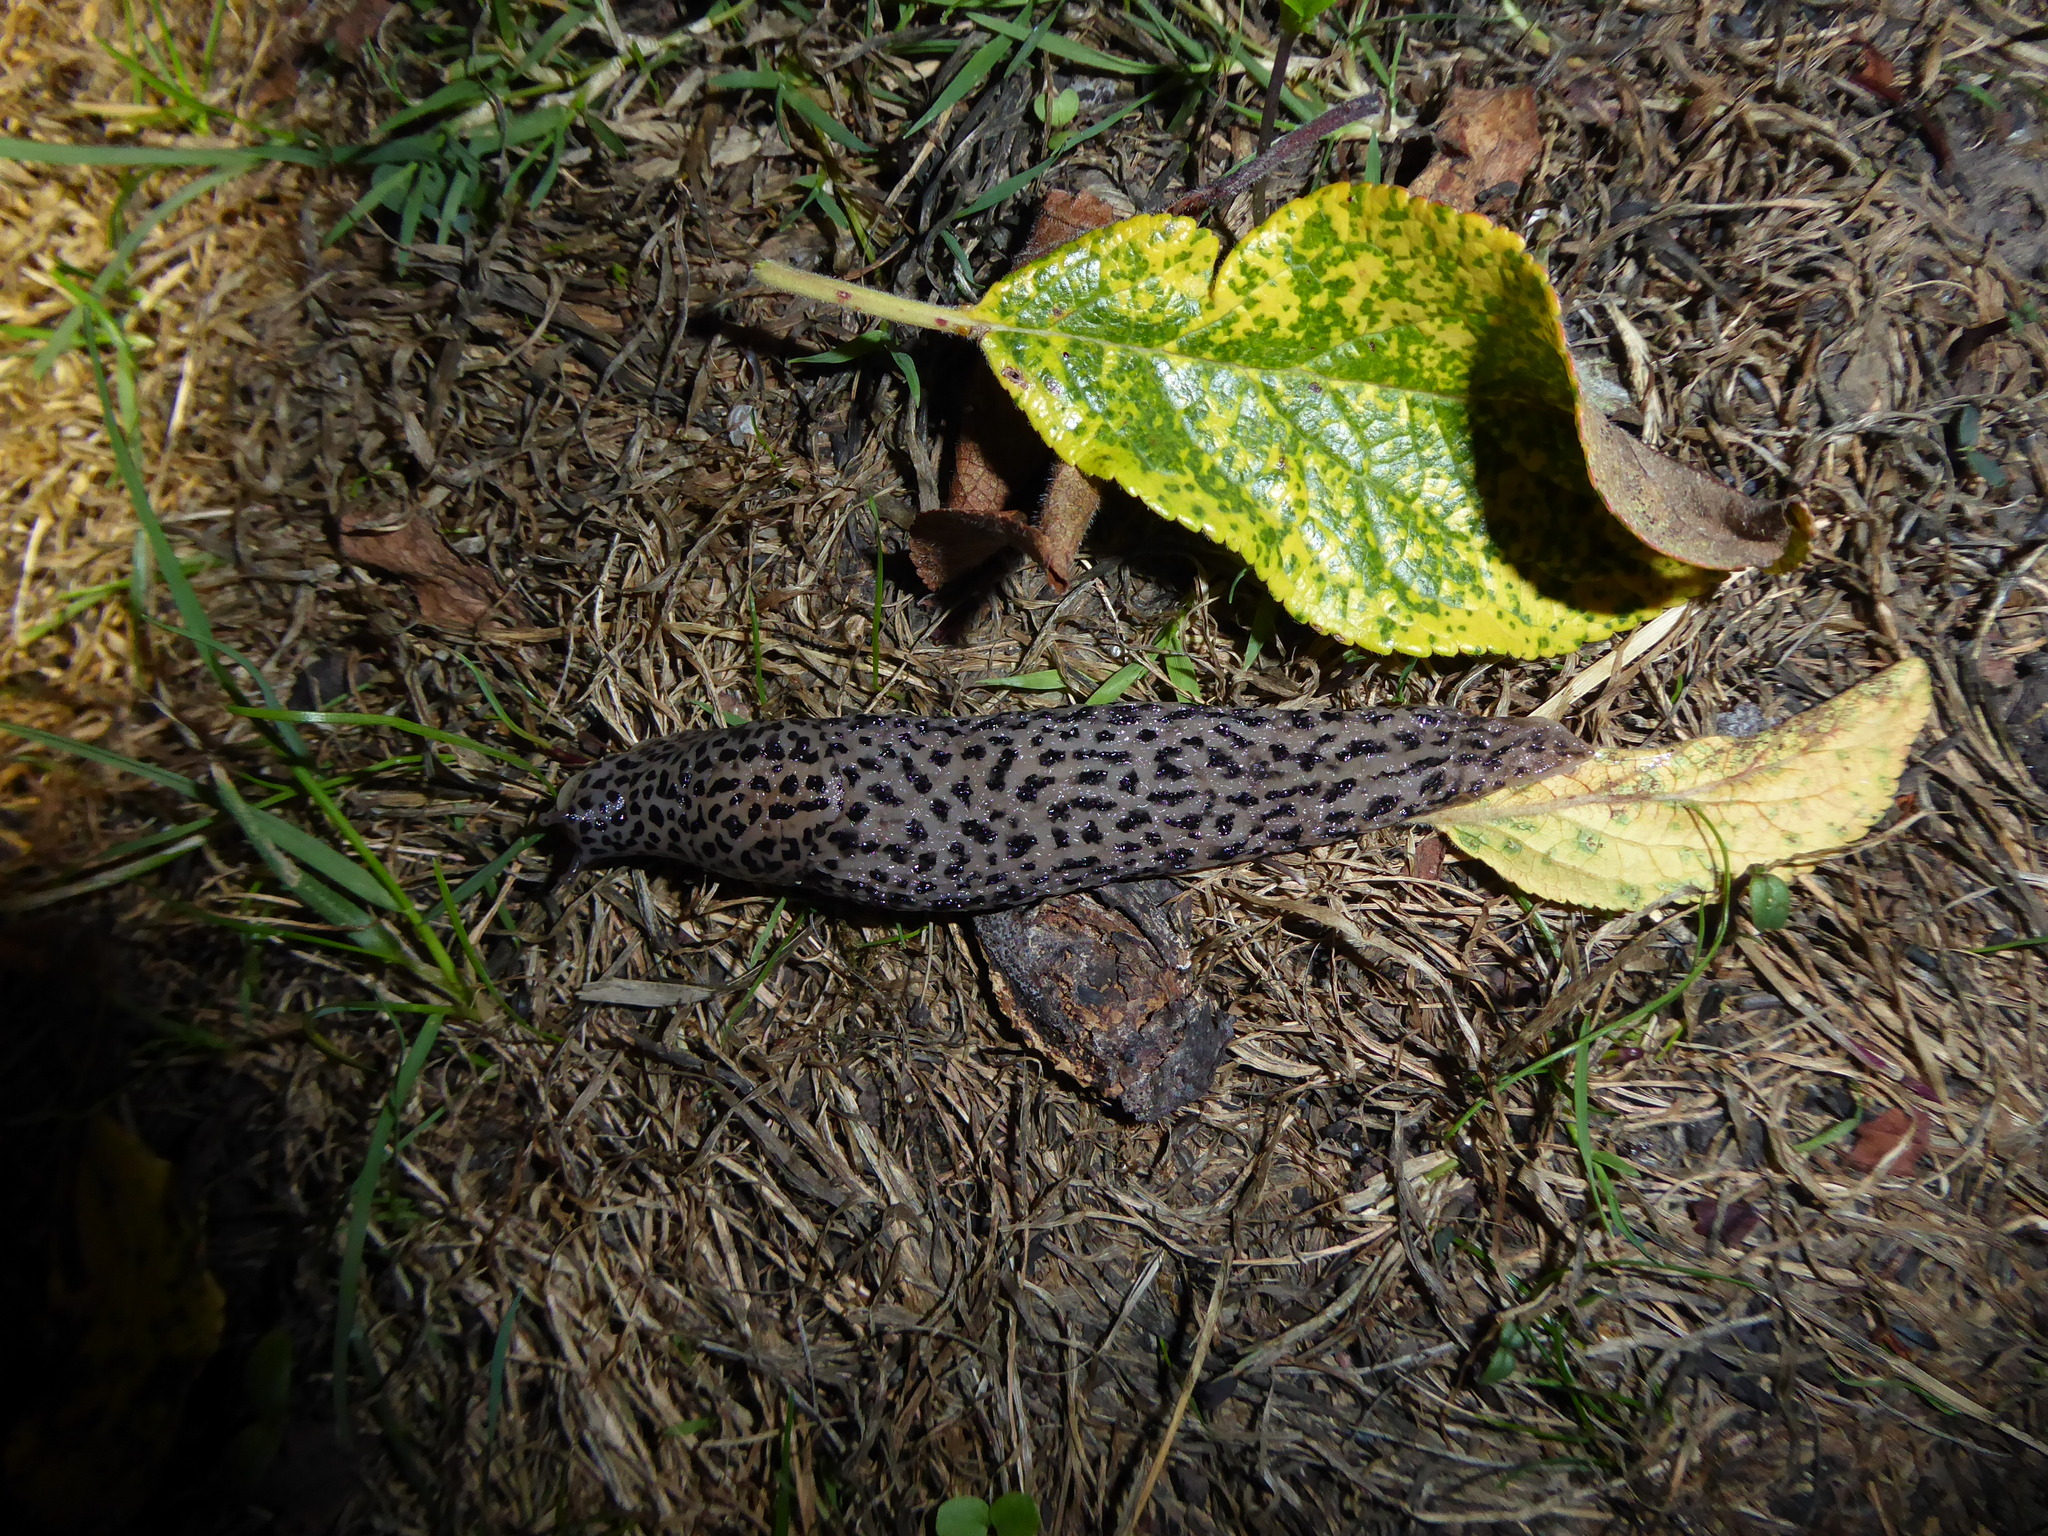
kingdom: Animalia
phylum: Mollusca
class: Gastropoda
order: Stylommatophora
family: Limacidae
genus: Limax
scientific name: Limax maximus
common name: Great grey slug
